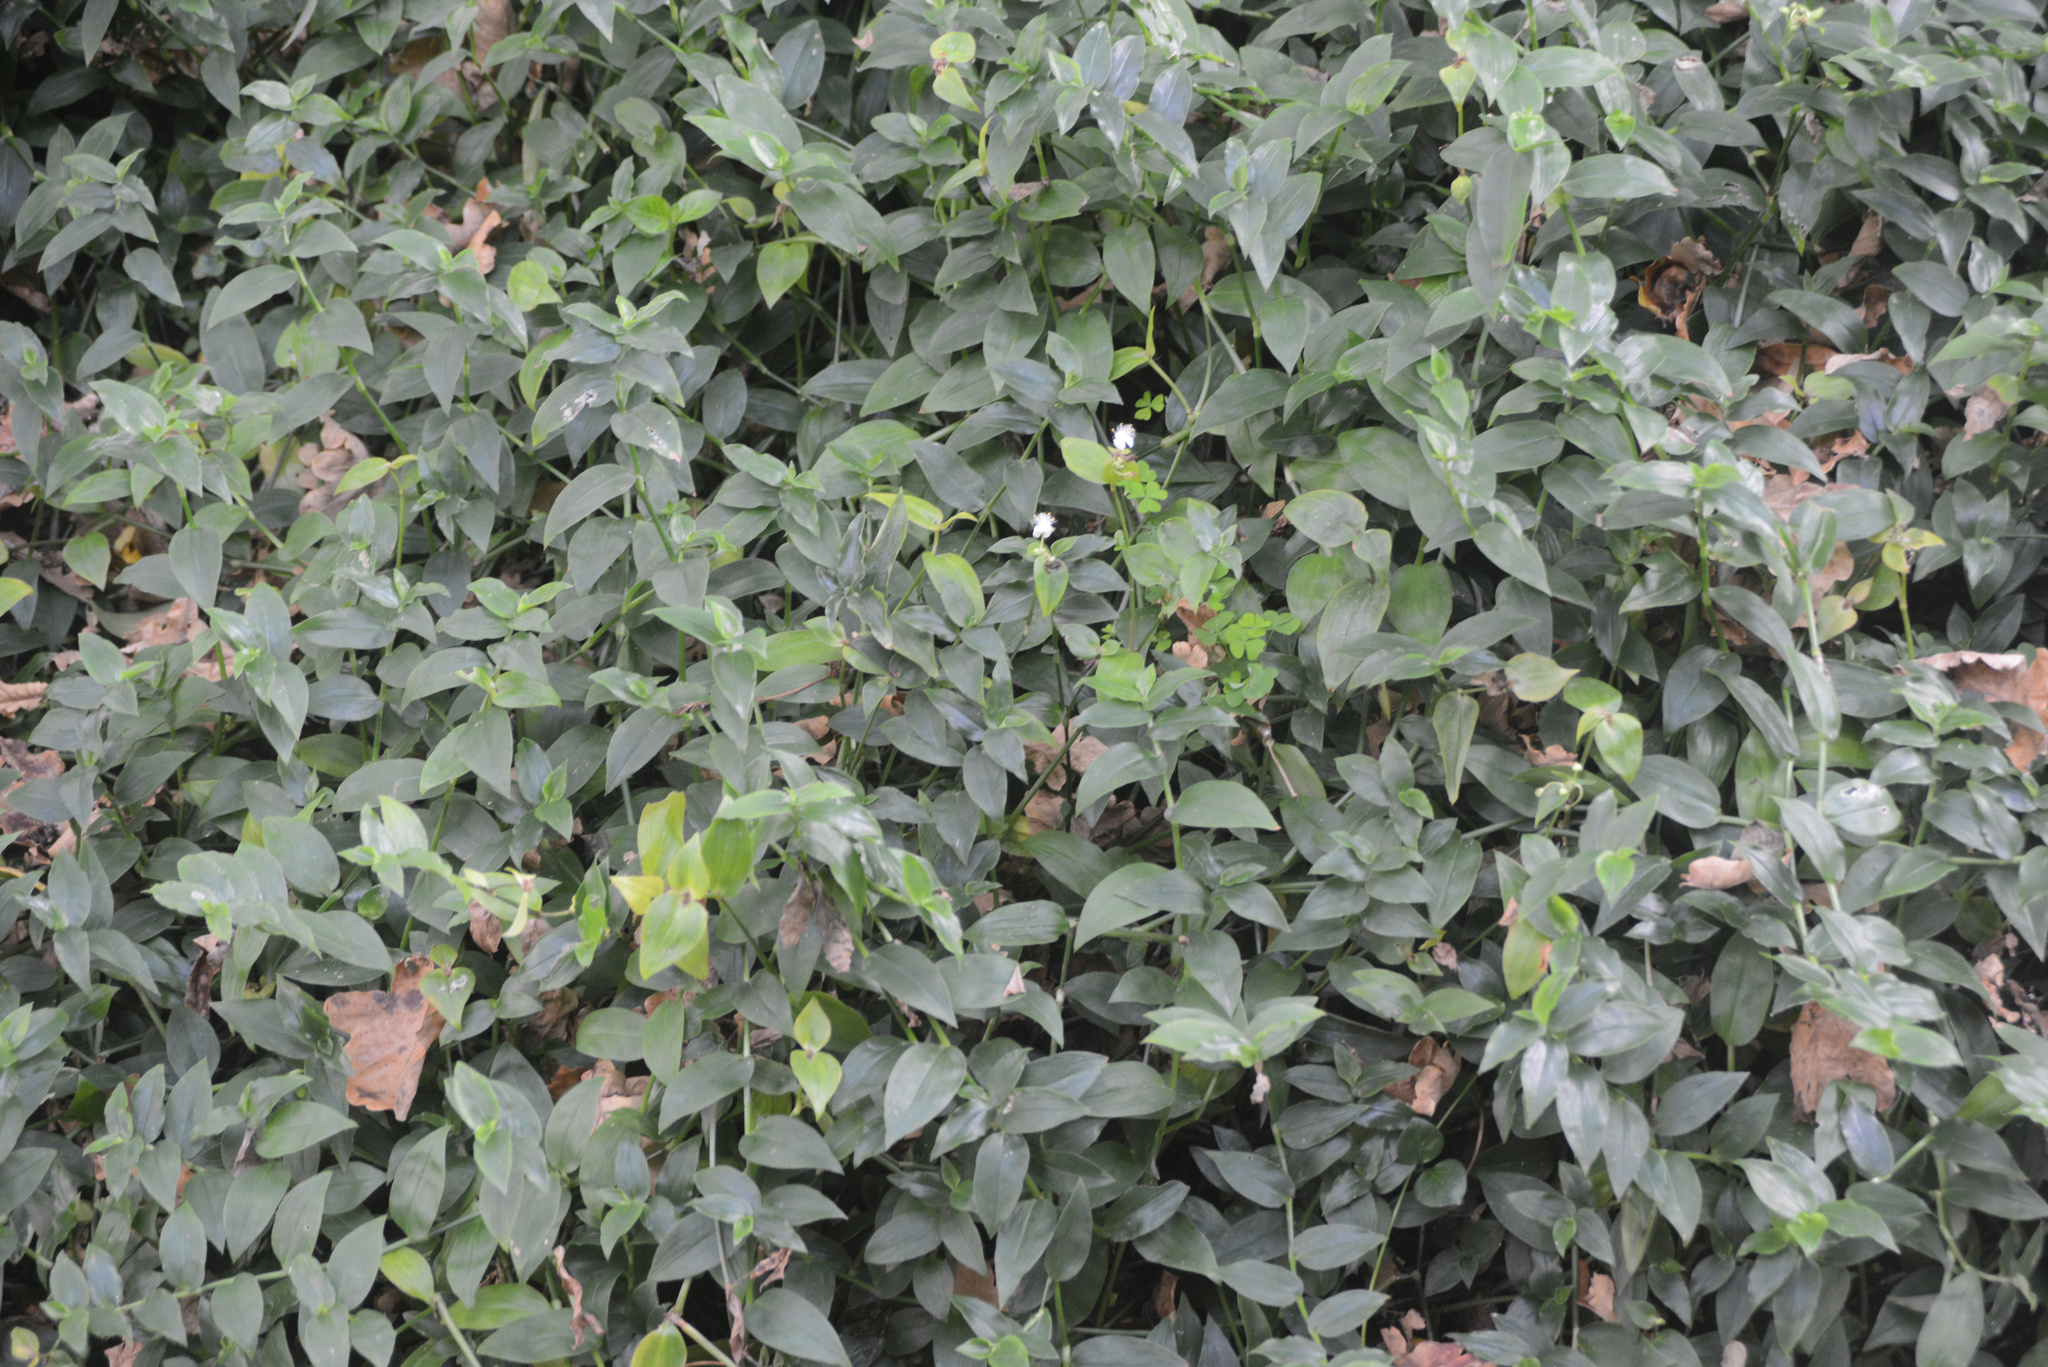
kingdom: Plantae
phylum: Tracheophyta
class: Liliopsida
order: Commelinales
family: Commelinaceae
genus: Tradescantia
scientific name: Tradescantia fluminensis
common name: Wandering-jew
